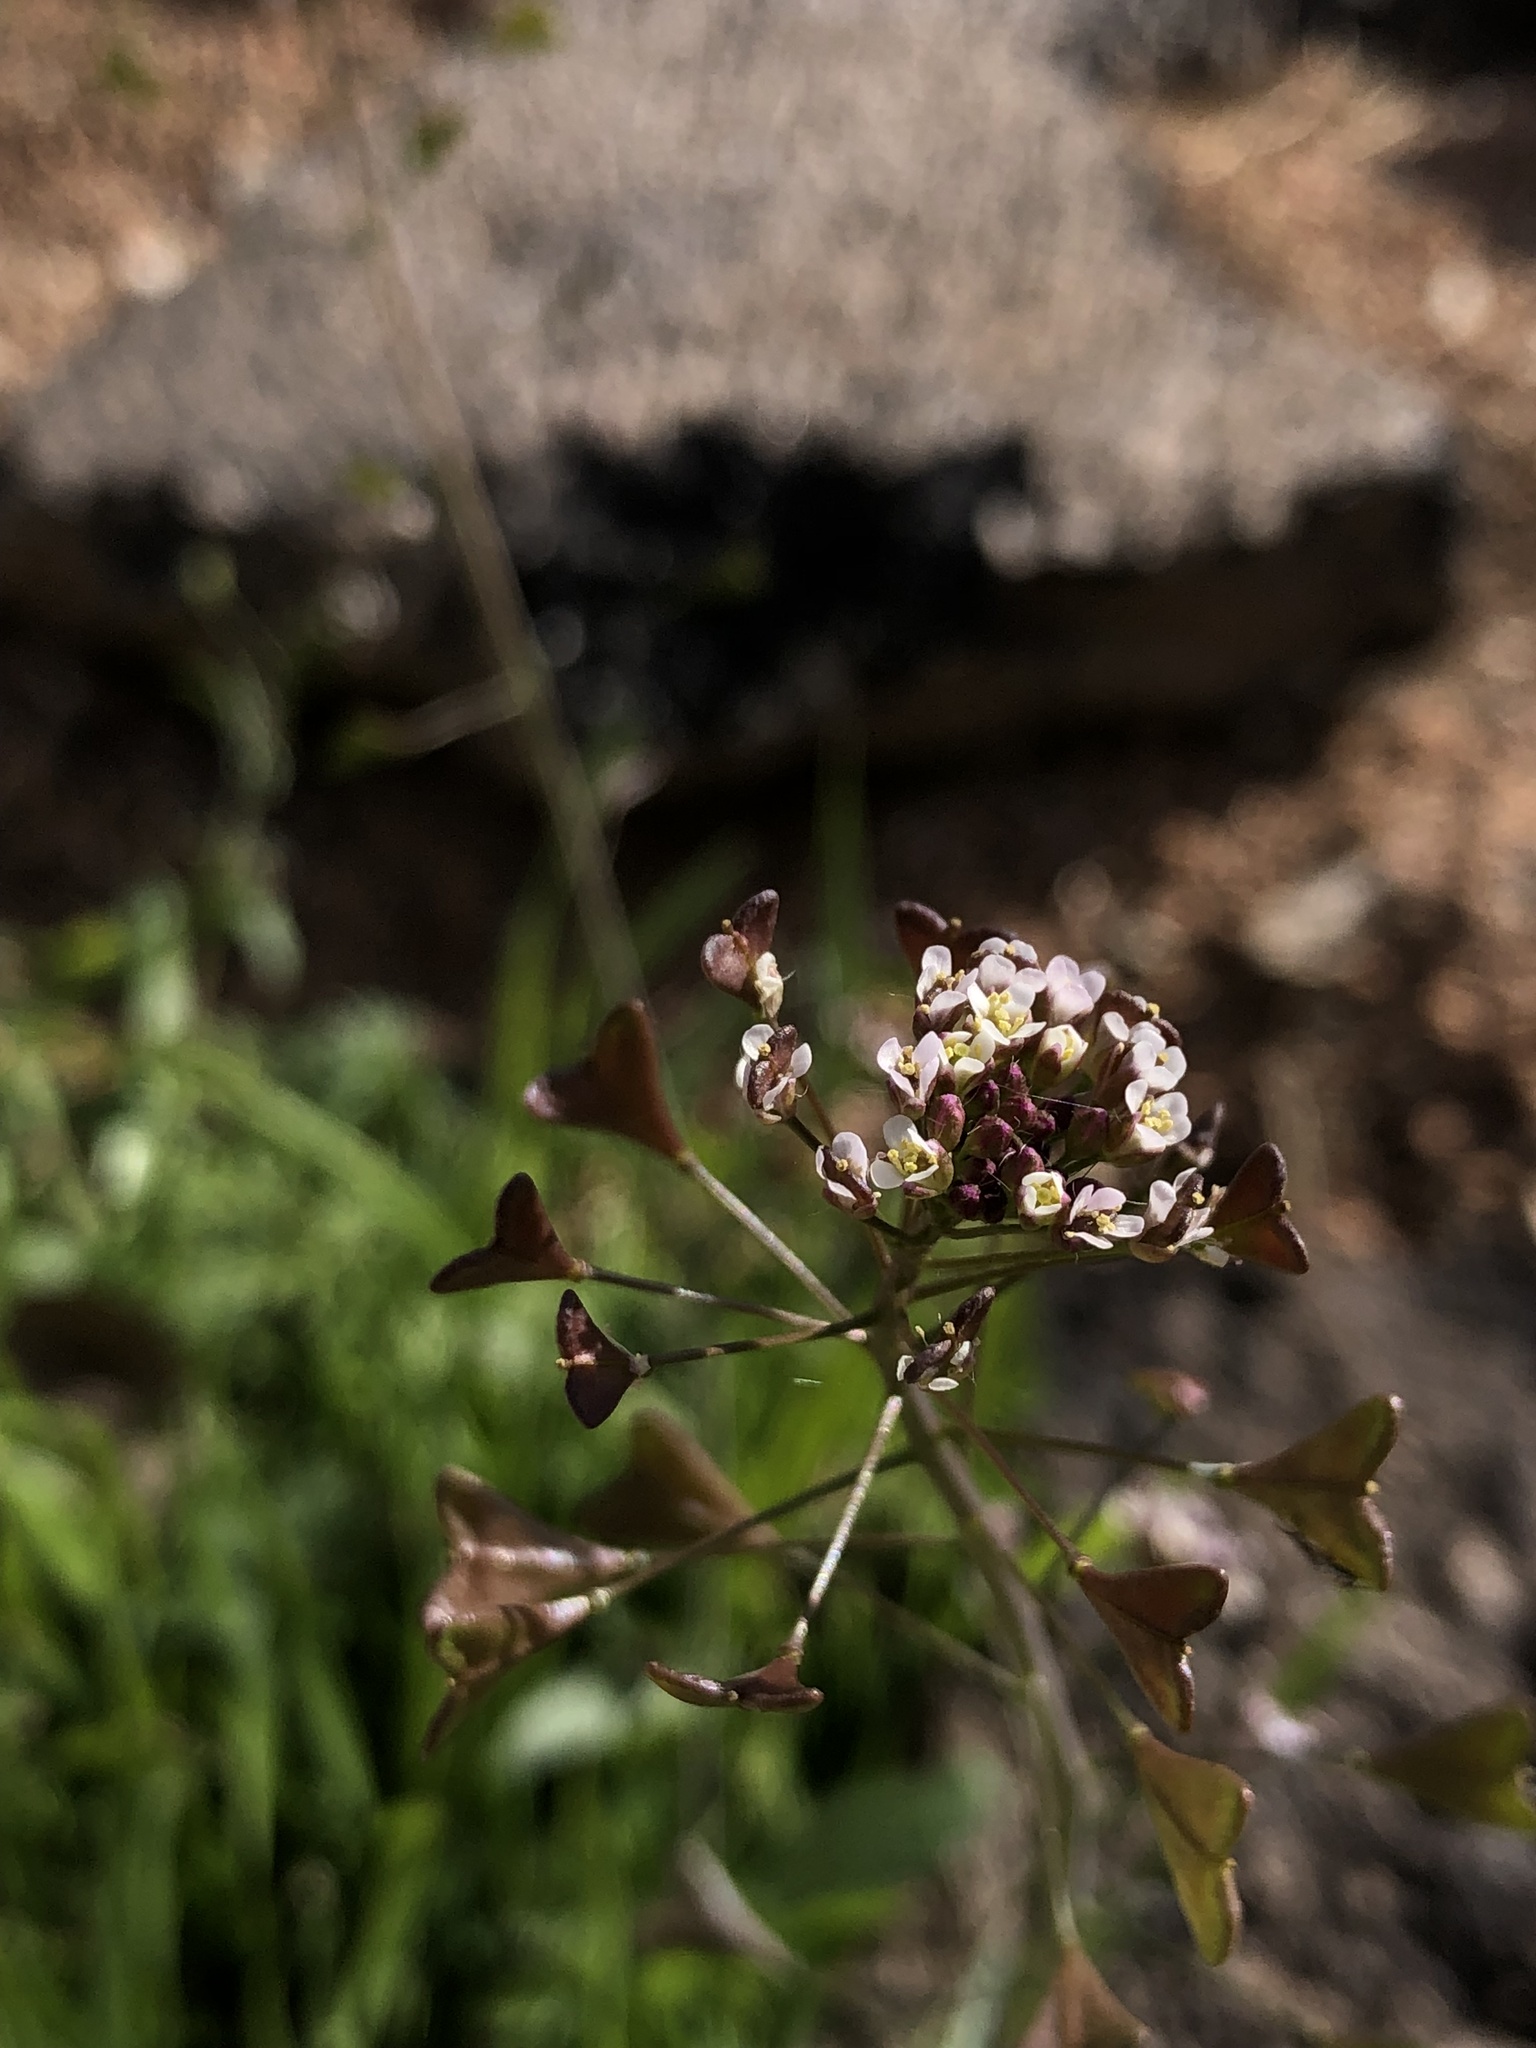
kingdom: Plantae
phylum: Tracheophyta
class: Magnoliopsida
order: Brassicales
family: Brassicaceae
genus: Capsella
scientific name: Capsella bursa-pastoris
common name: Shepherd's purse
